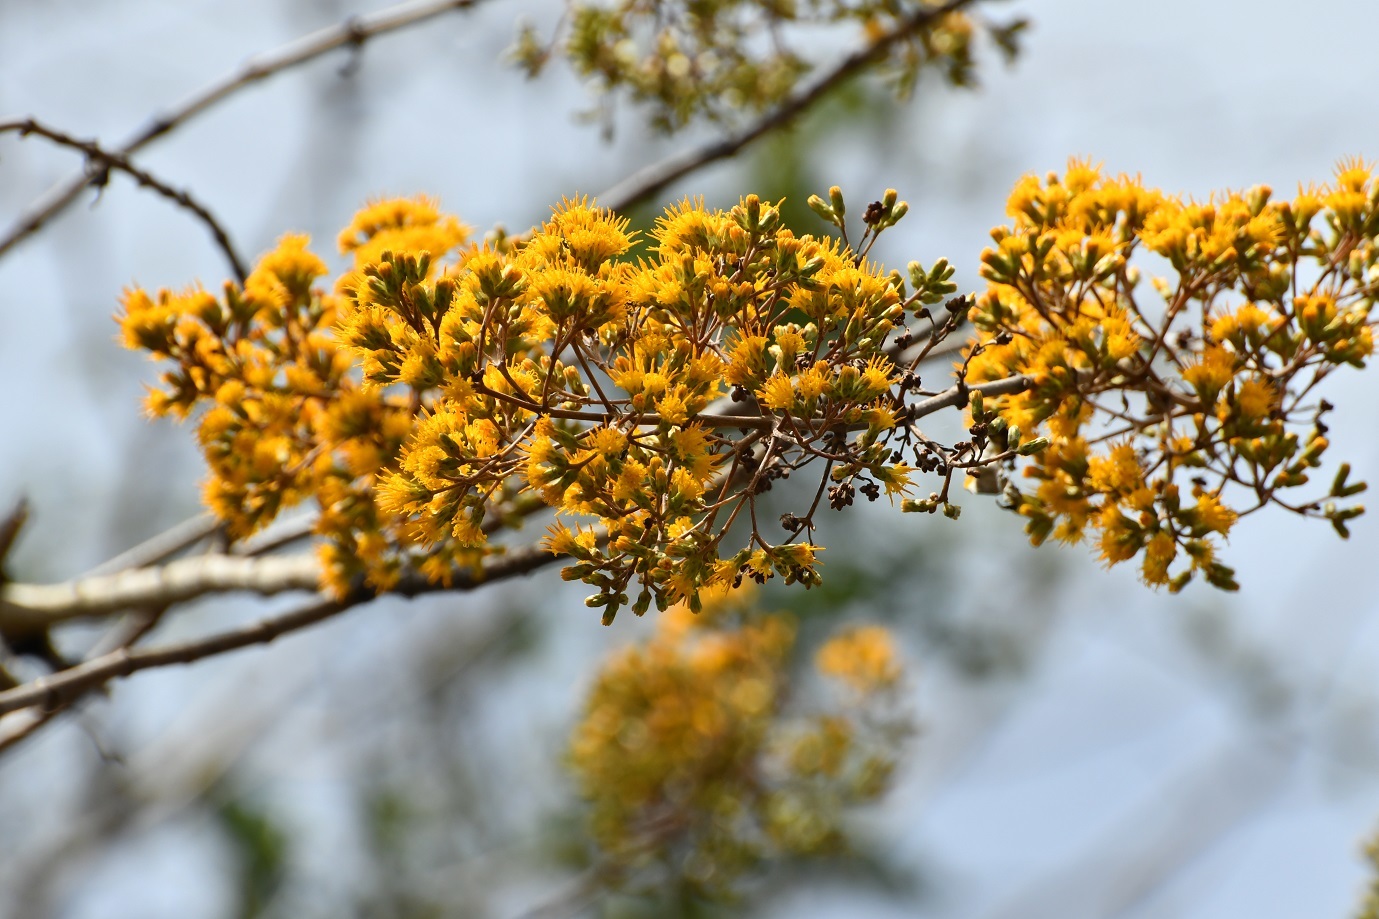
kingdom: Plantae
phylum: Tracheophyta
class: Magnoliopsida
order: Asterales
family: Asteraceae
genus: Sinclairia
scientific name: Sinclairia vagans
